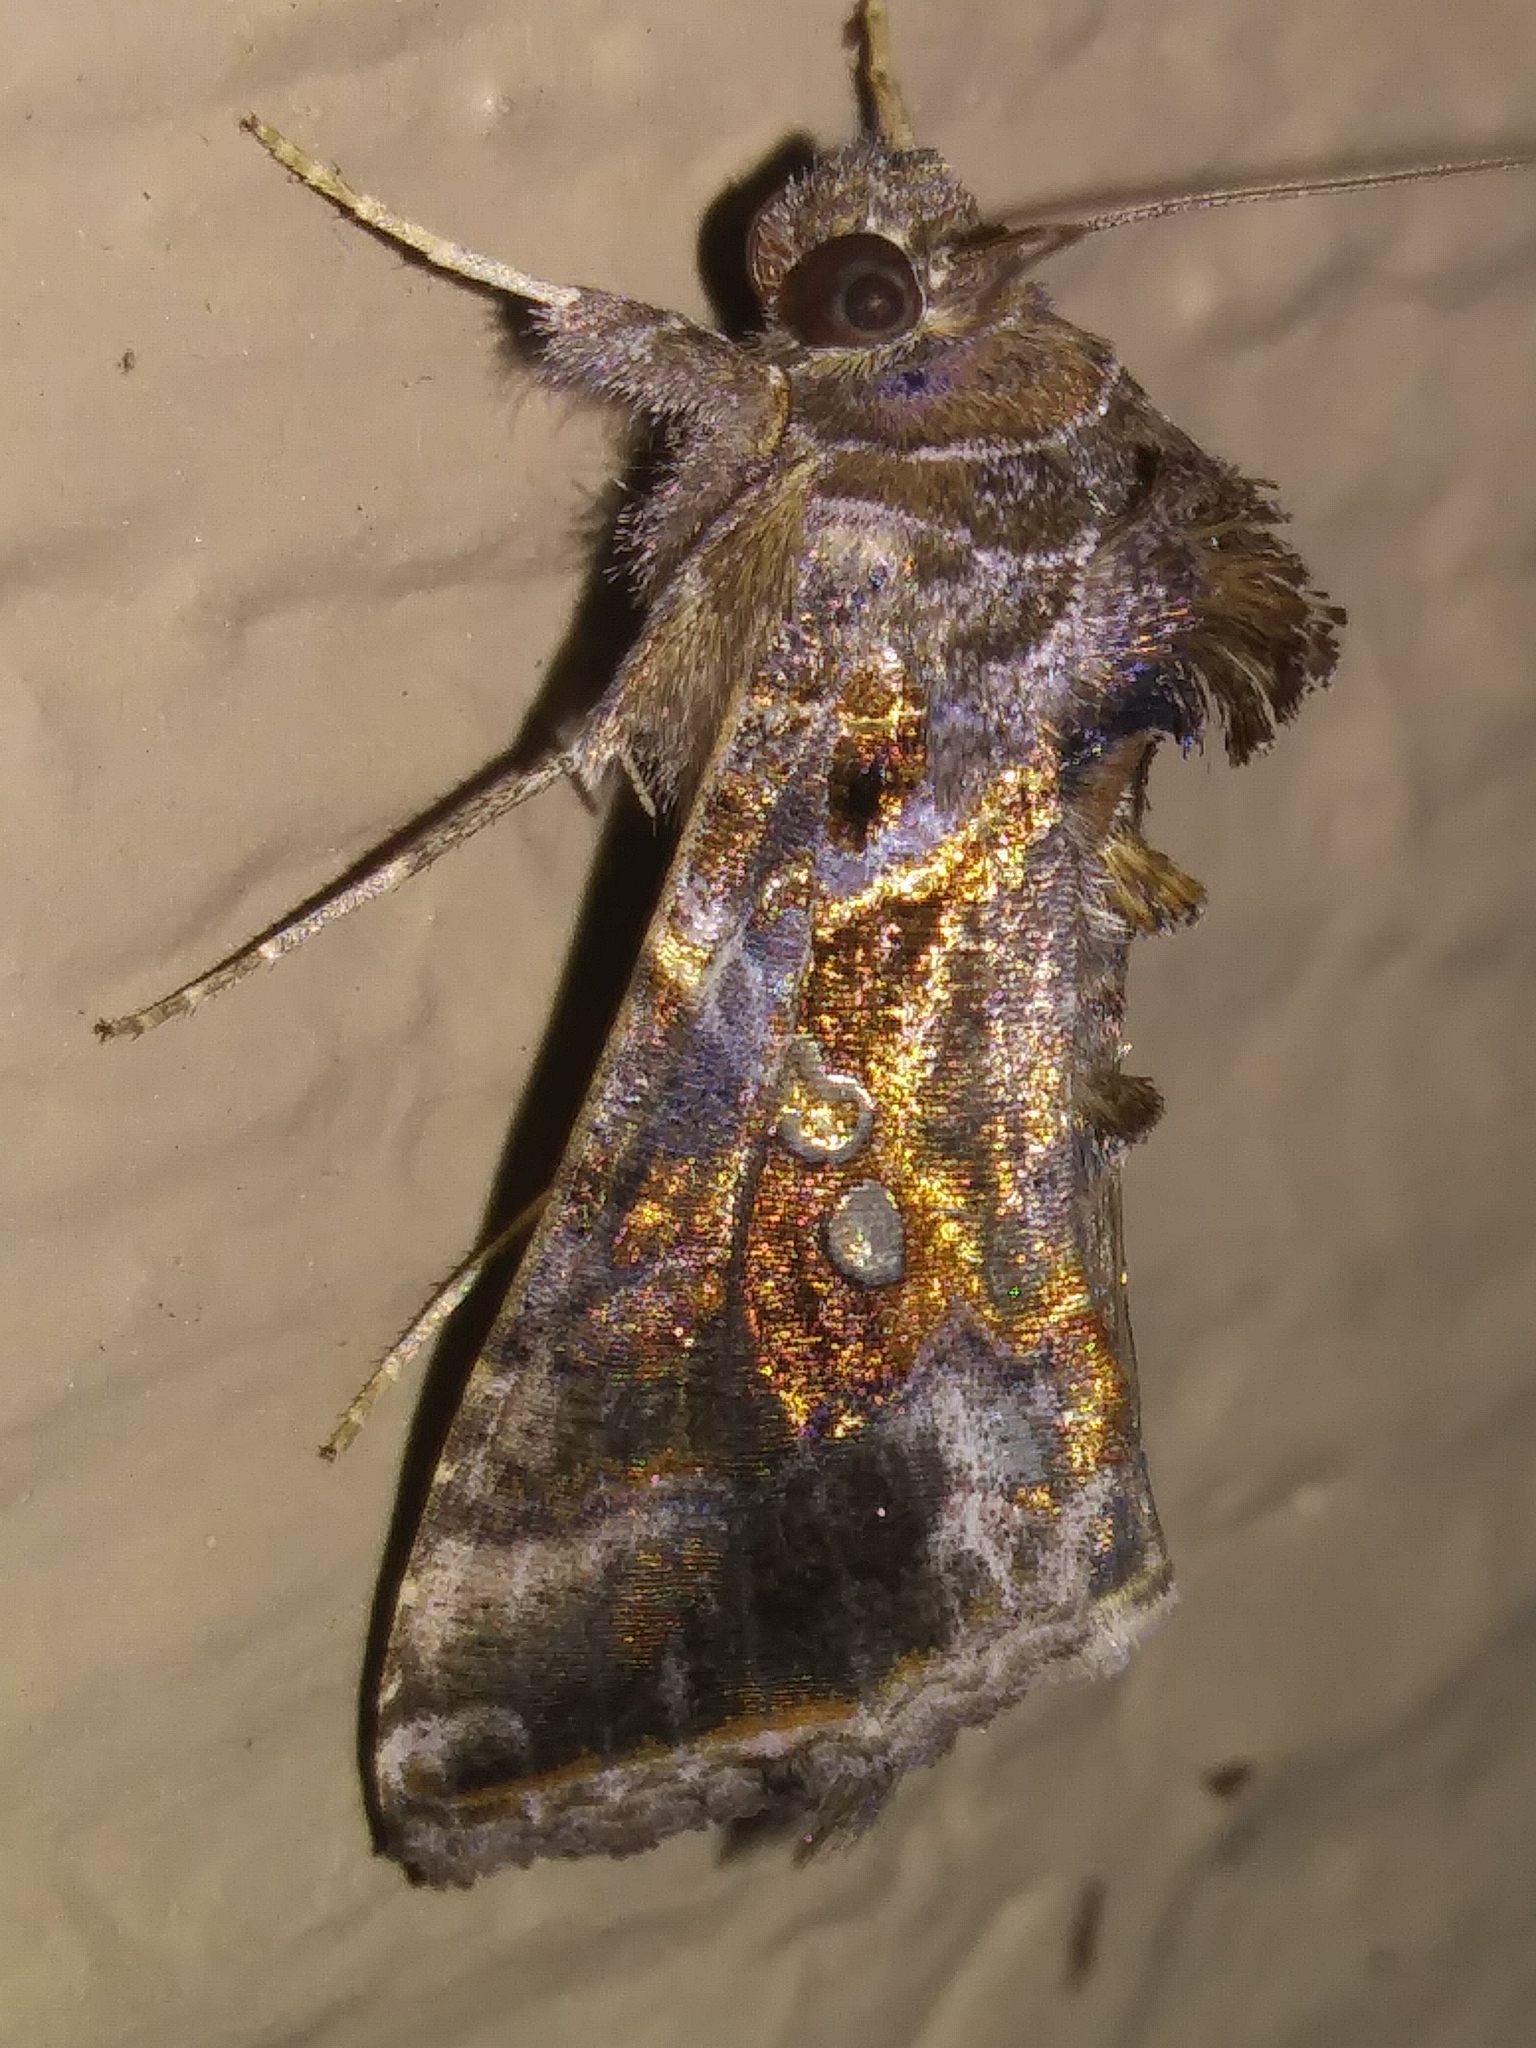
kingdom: Animalia
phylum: Arthropoda
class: Insecta
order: Lepidoptera
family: Noctuidae
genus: Chrysodeixis
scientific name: Chrysodeixis includens
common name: Cutworm moth
